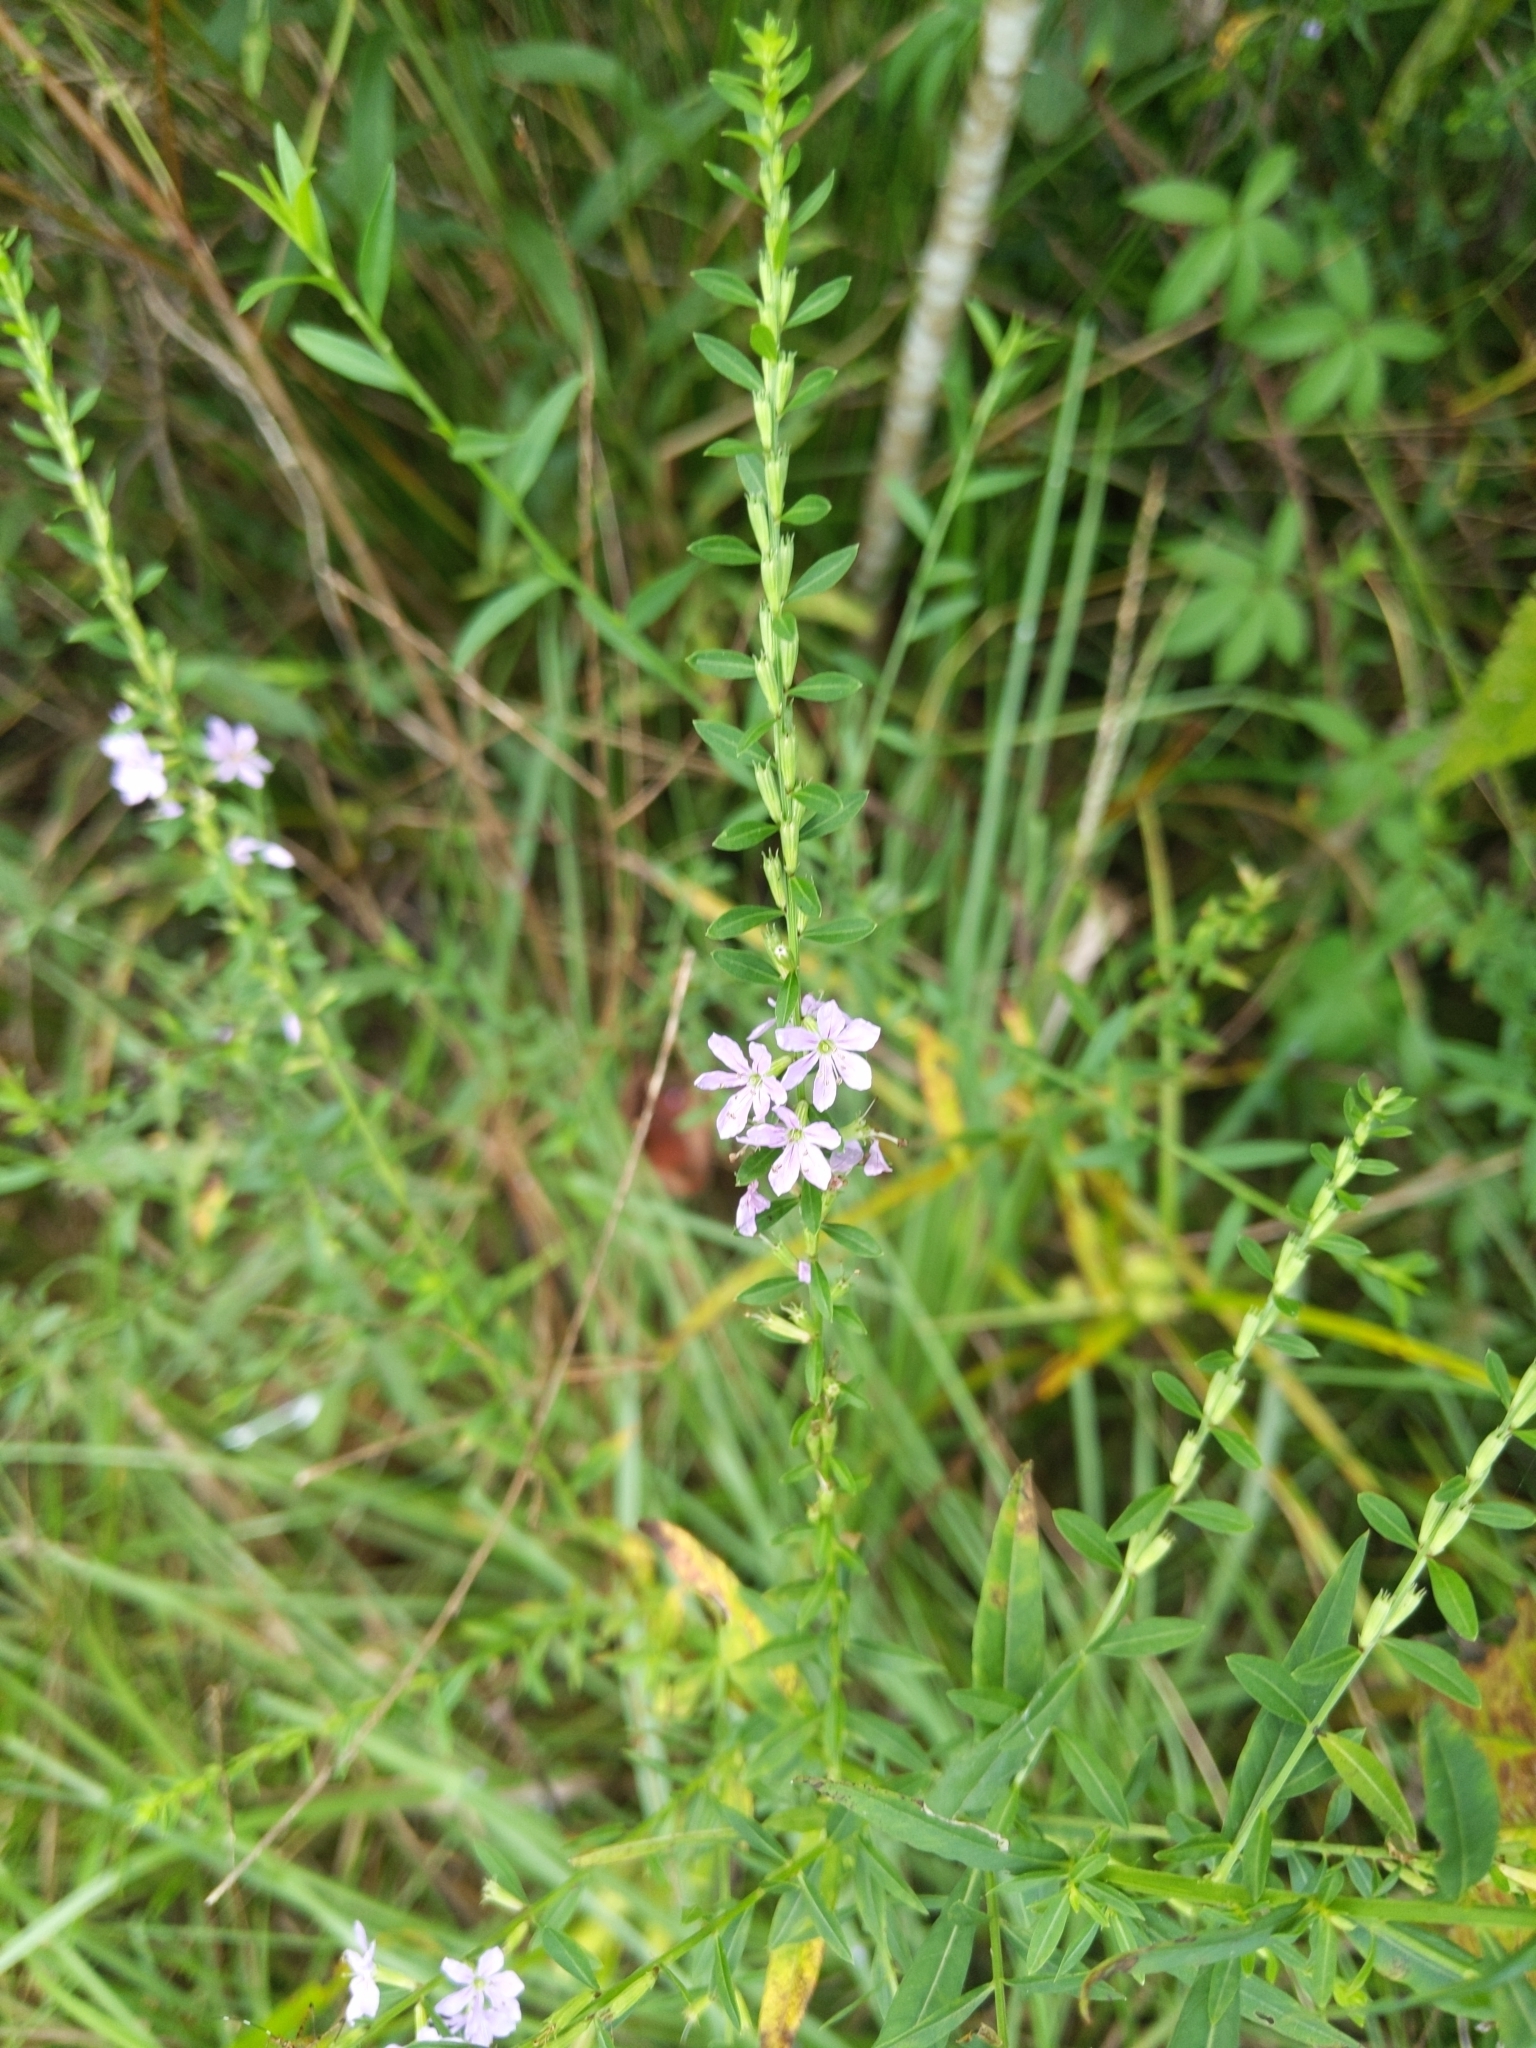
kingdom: Plantae
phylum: Tracheophyta
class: Magnoliopsida
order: Myrtales
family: Lythraceae
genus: Lythrum
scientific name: Lythrum alatum
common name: Winged loosestrife
